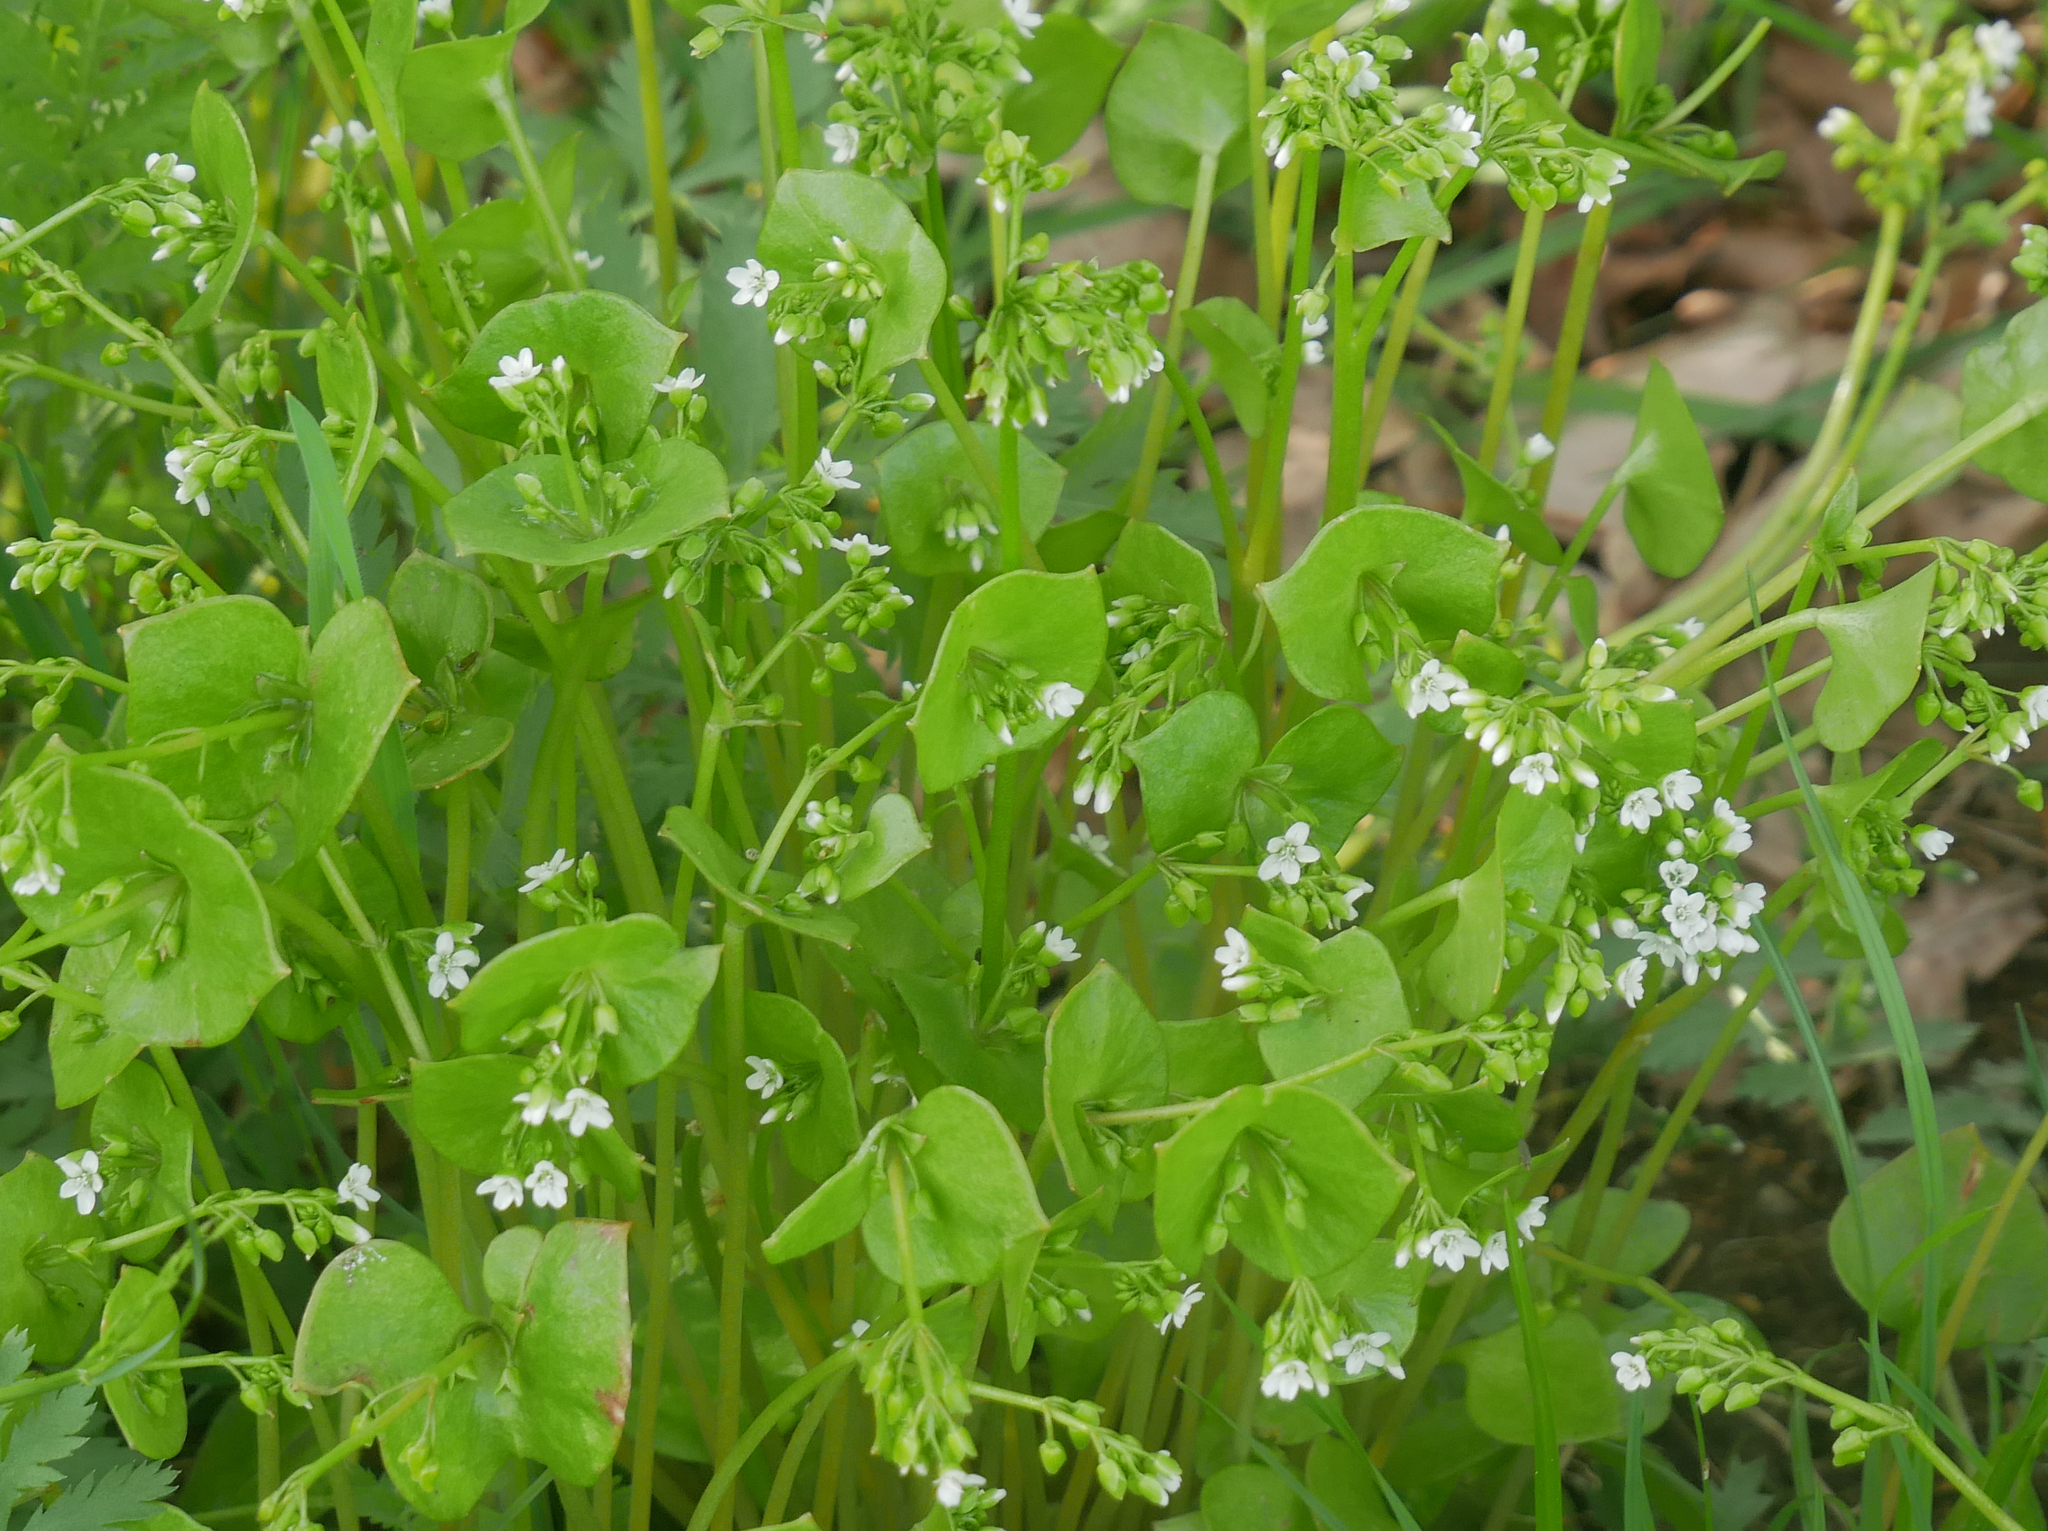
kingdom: Plantae
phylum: Tracheophyta
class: Magnoliopsida
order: Caryophyllales
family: Montiaceae
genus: Claytonia
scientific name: Claytonia perfoliata
